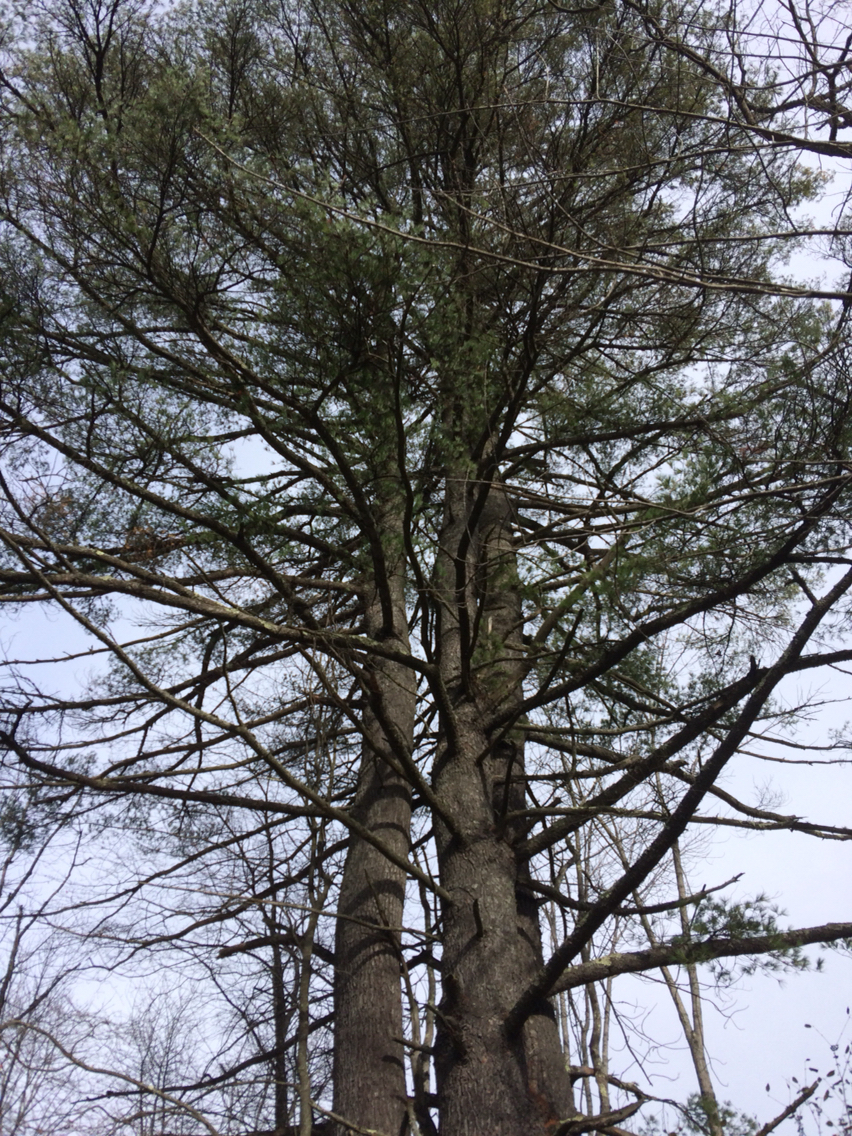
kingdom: Plantae
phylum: Tracheophyta
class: Pinopsida
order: Pinales
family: Pinaceae
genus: Pinus
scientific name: Pinus strobus
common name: Weymouth pine
